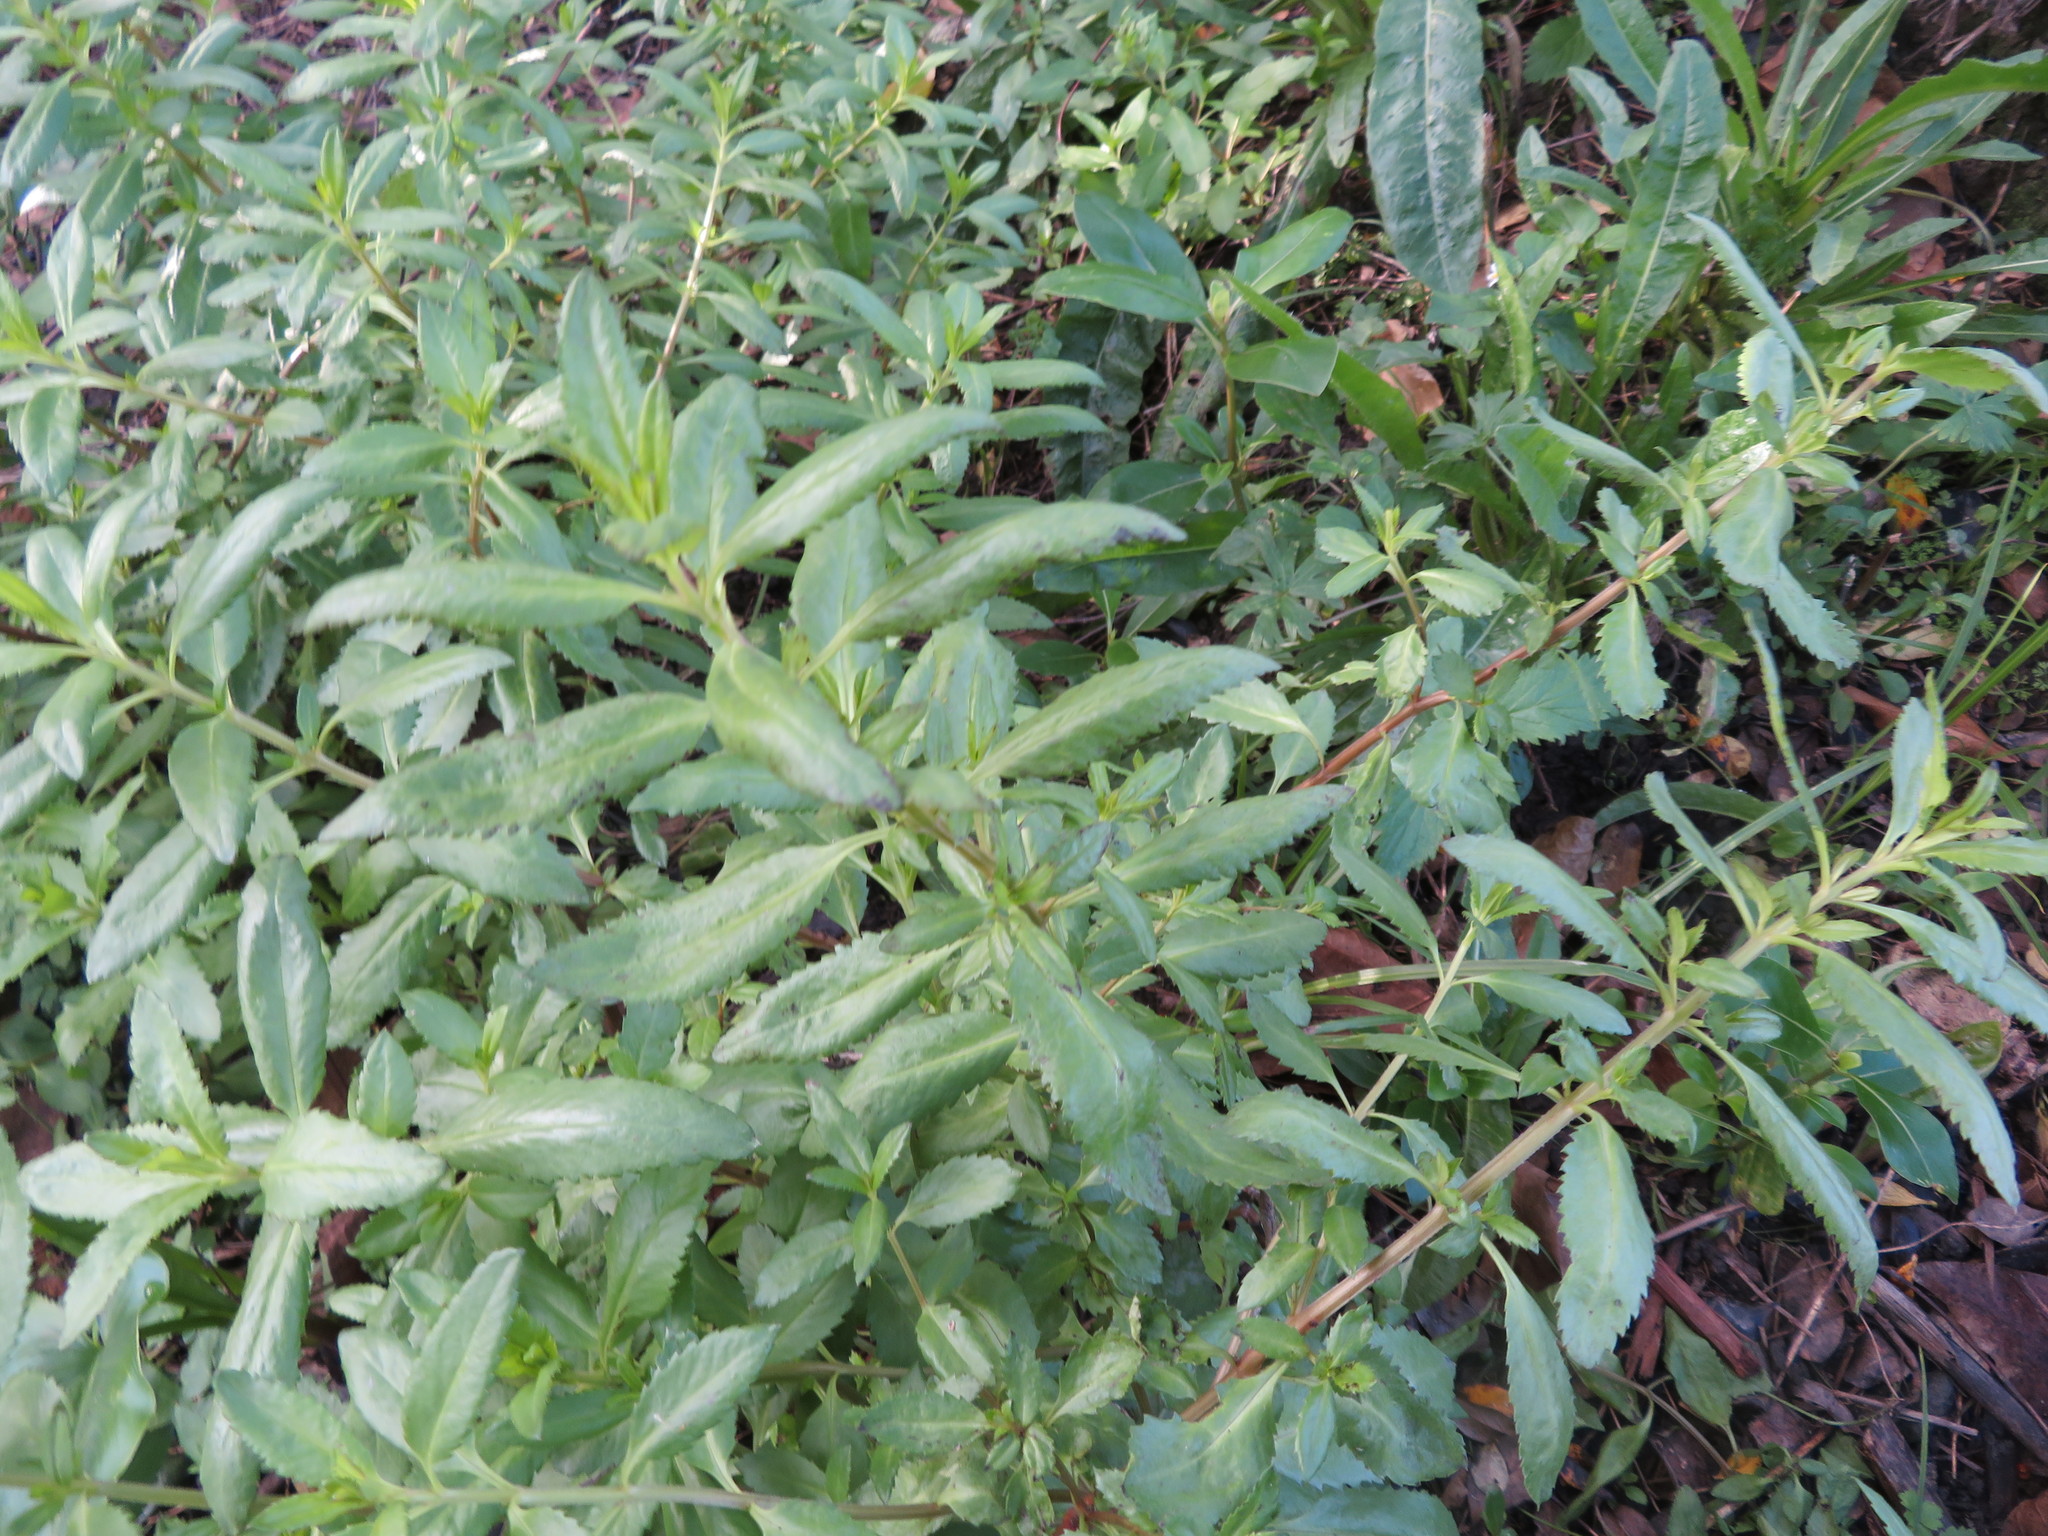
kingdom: Plantae
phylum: Tracheophyta
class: Liliopsida
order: Asparagales
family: Asparagaceae
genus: Cordyline
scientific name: Cordyline australis
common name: Cabbage-palm
